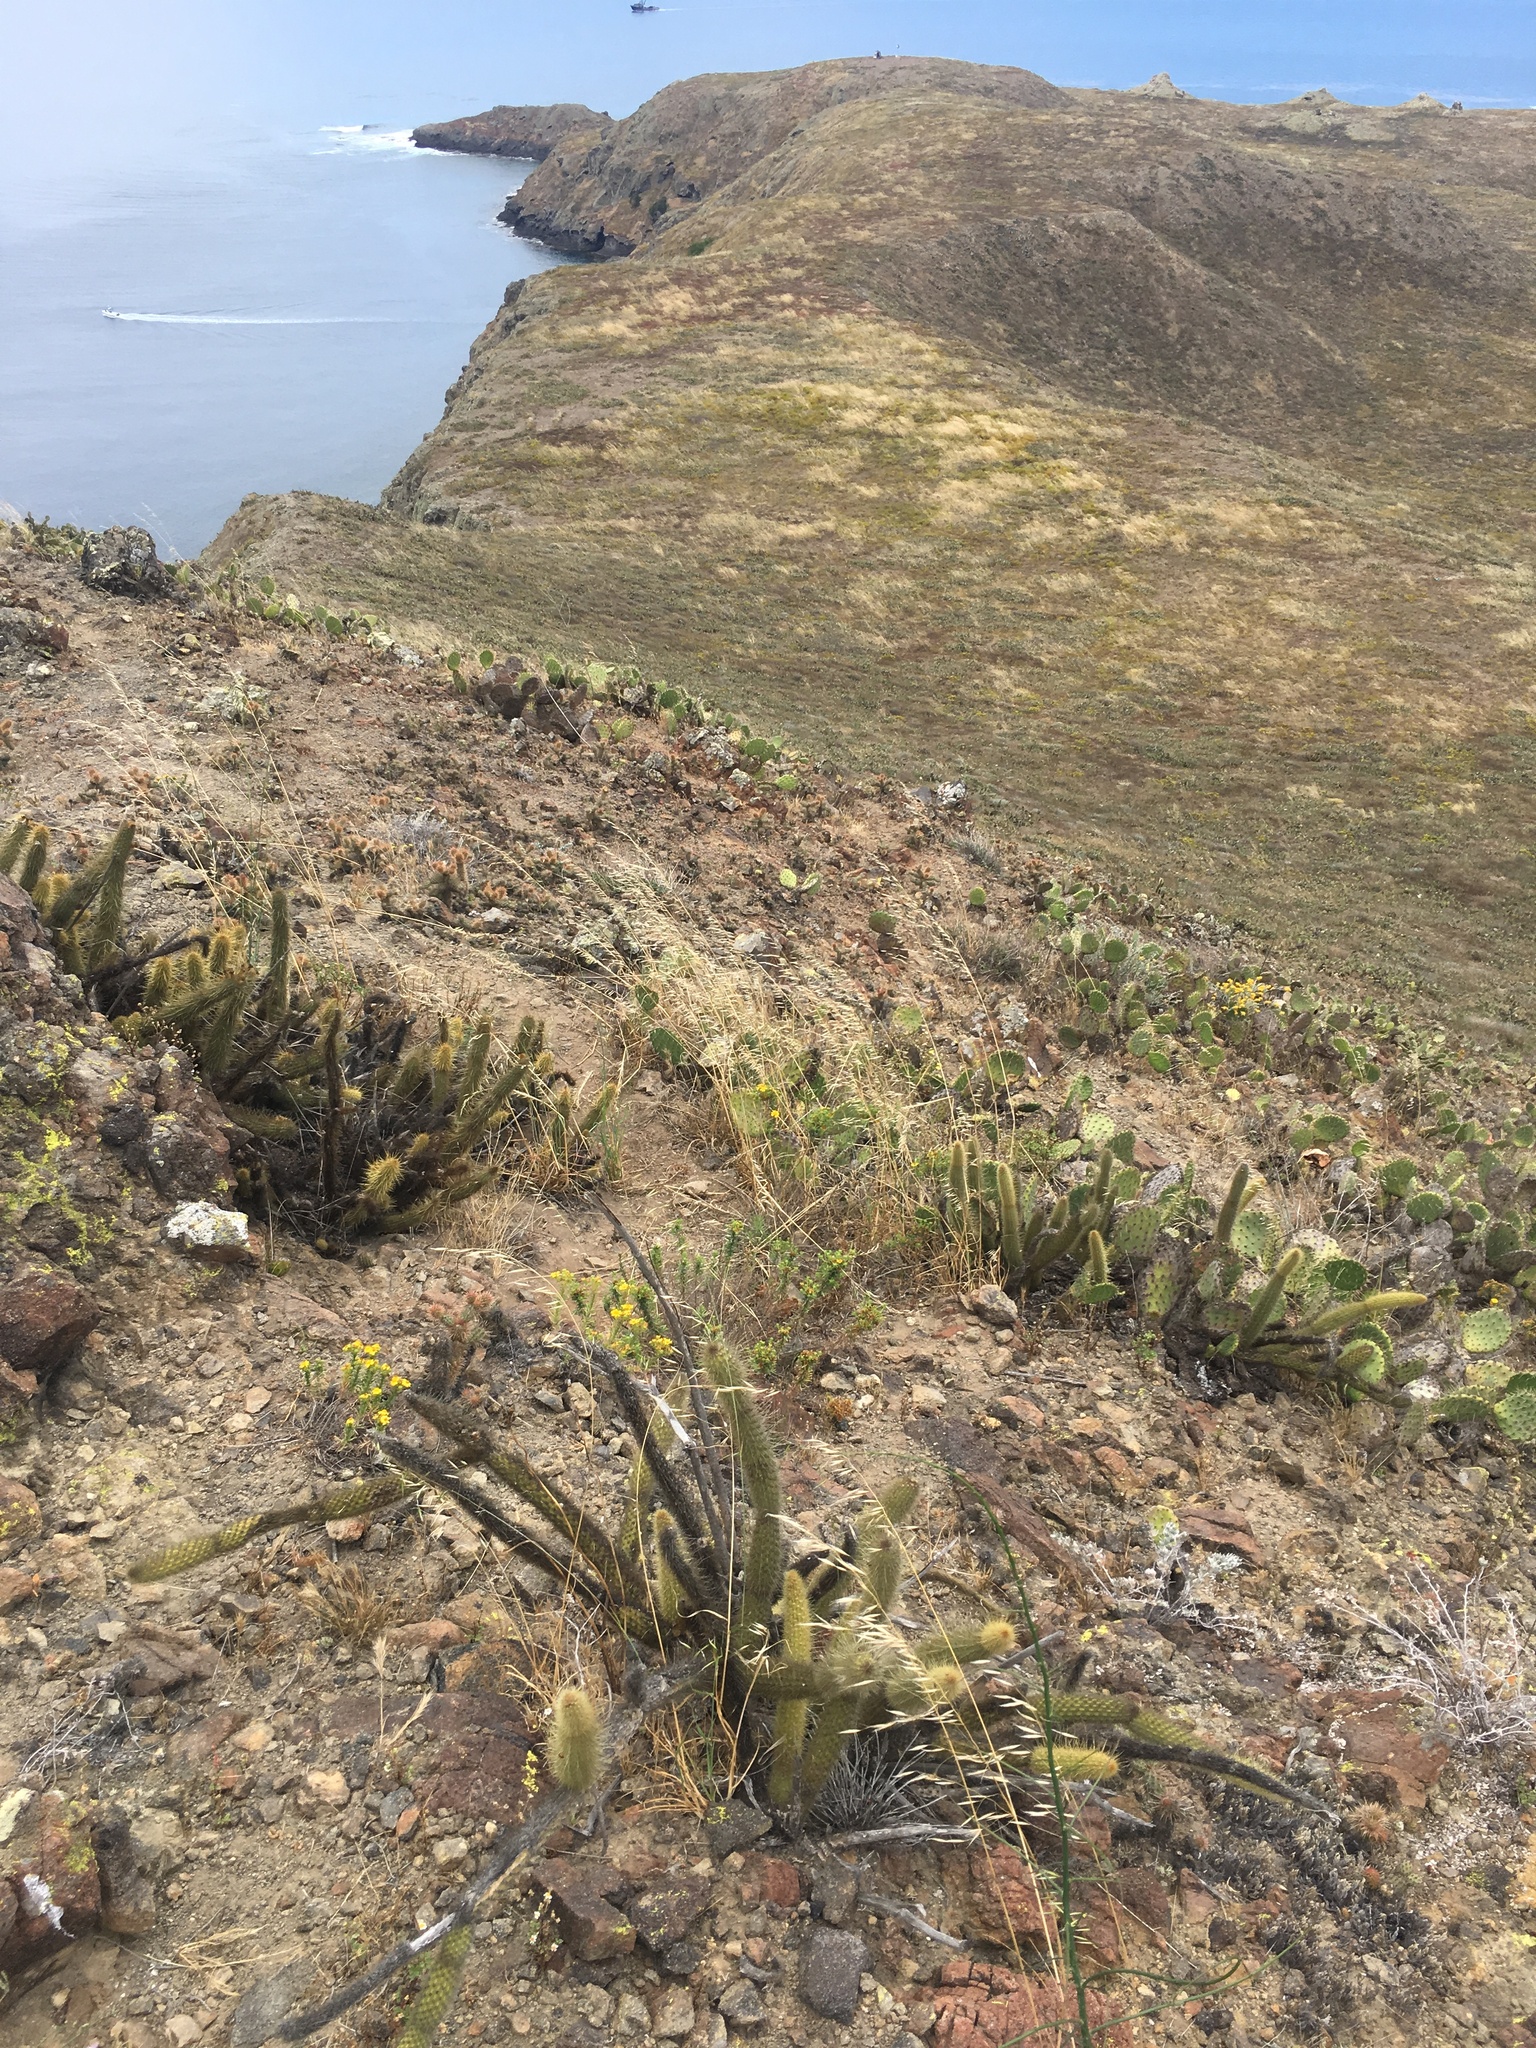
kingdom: Plantae
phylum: Tracheophyta
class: Magnoliopsida
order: Caryophyllales
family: Cactaceae
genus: Bergerocactus
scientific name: Bergerocactus emoryi
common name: Golden snakecactus
